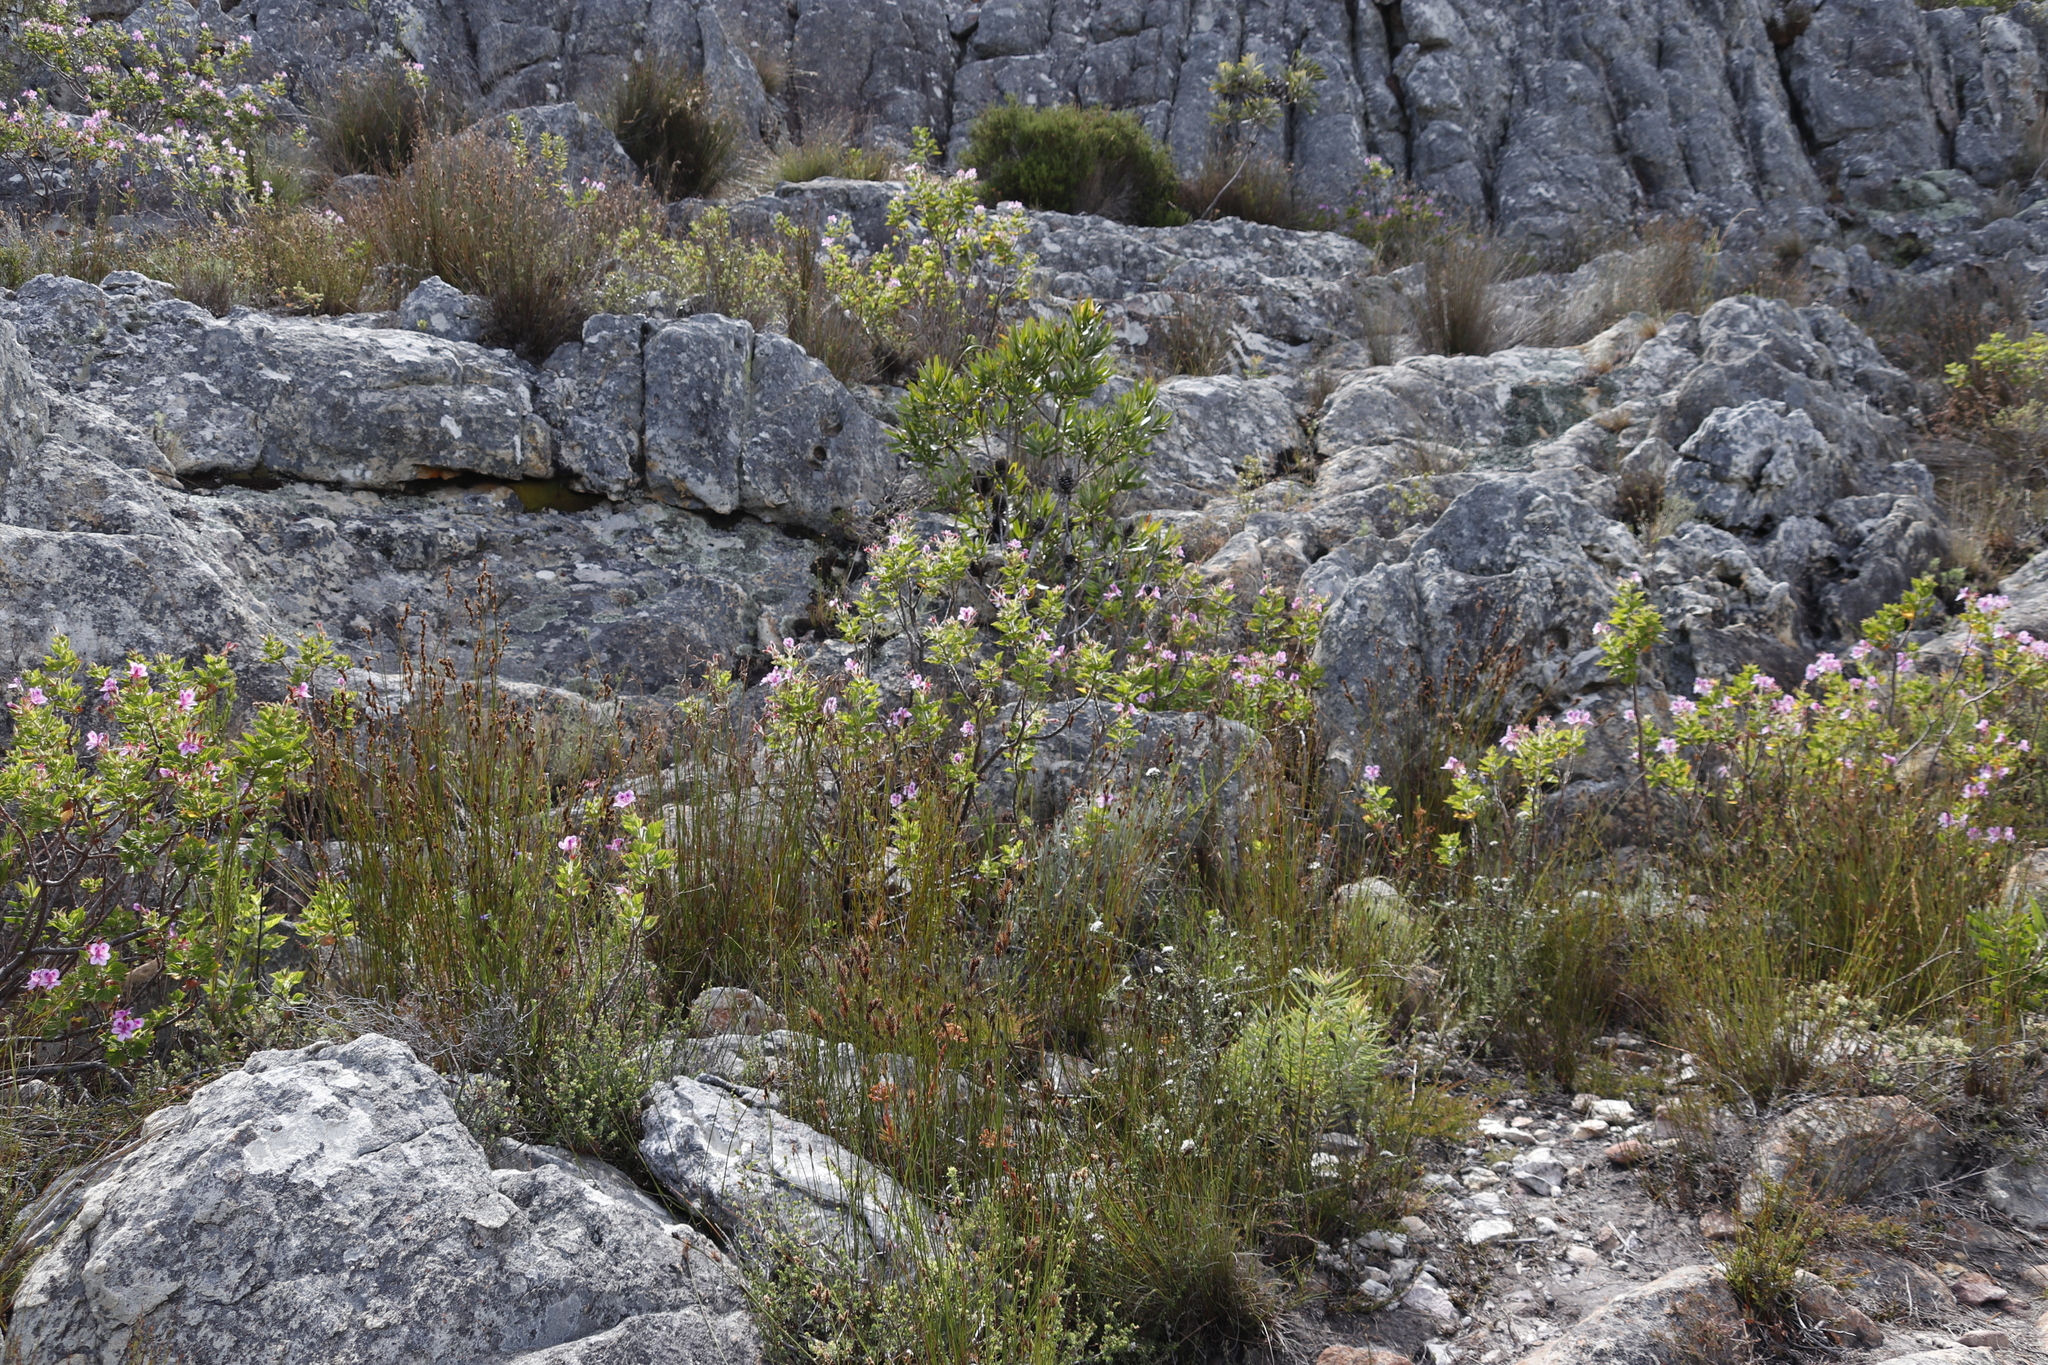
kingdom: Plantae
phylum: Tracheophyta
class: Magnoliopsida
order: Geraniales
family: Geraniaceae
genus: Pelargonium
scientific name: Pelargonium cucullatum
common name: Tree pelargonium
